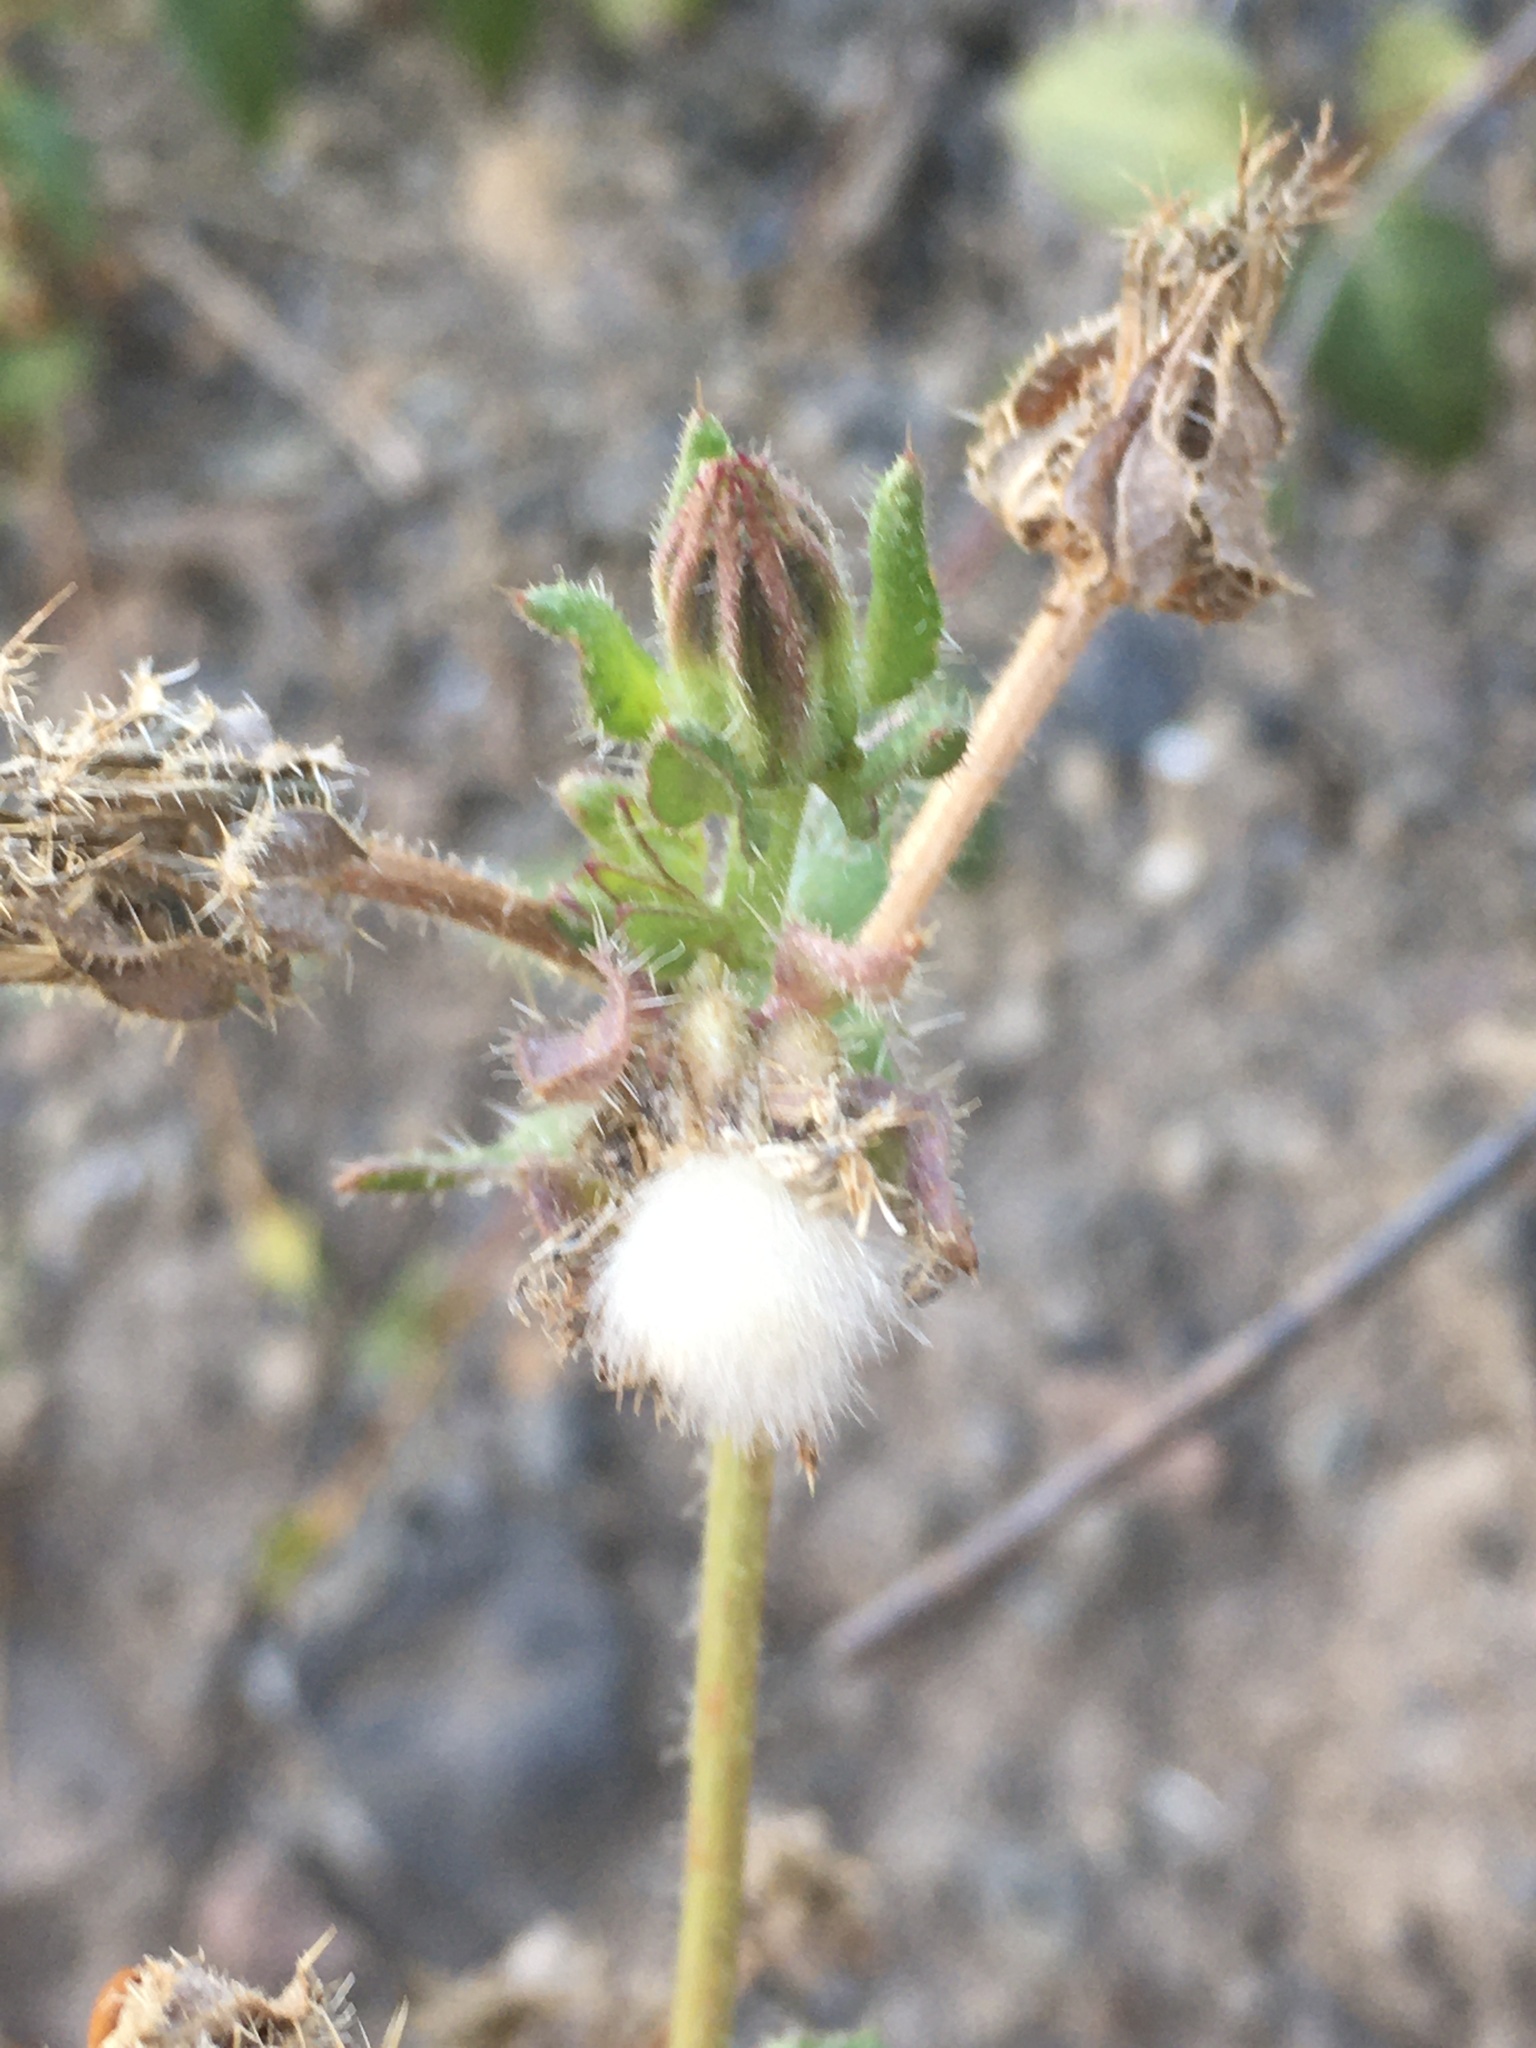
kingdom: Plantae
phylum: Tracheophyta
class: Magnoliopsida
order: Asterales
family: Asteraceae
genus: Helminthotheca
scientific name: Helminthotheca echioides
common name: Ox-tongue
